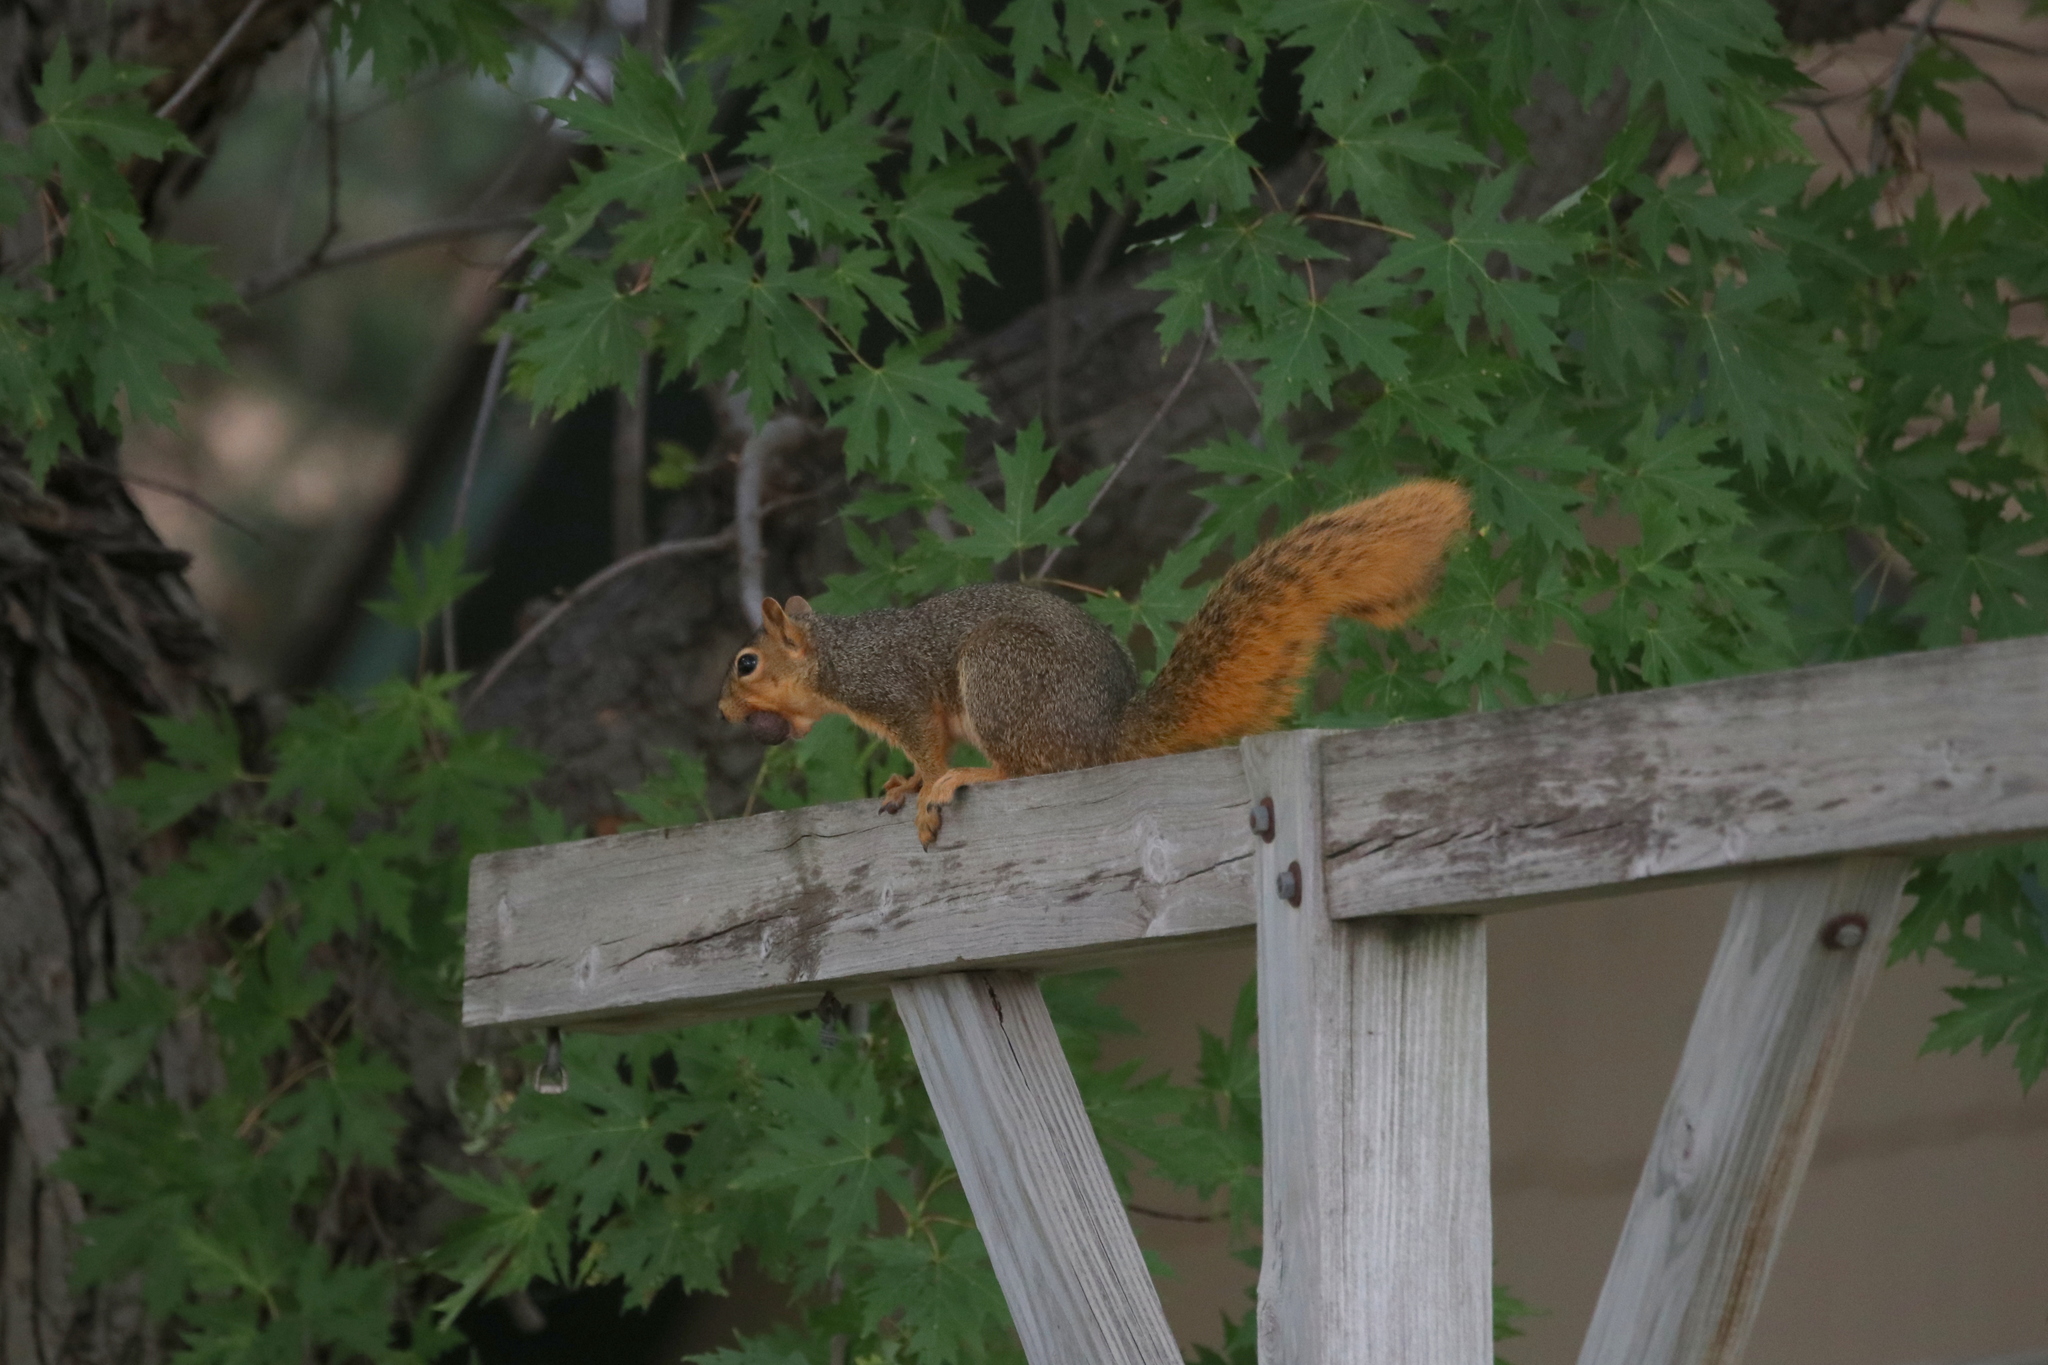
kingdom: Animalia
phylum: Chordata
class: Mammalia
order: Rodentia
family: Sciuridae
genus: Sciurus
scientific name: Sciurus niger
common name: Fox squirrel
